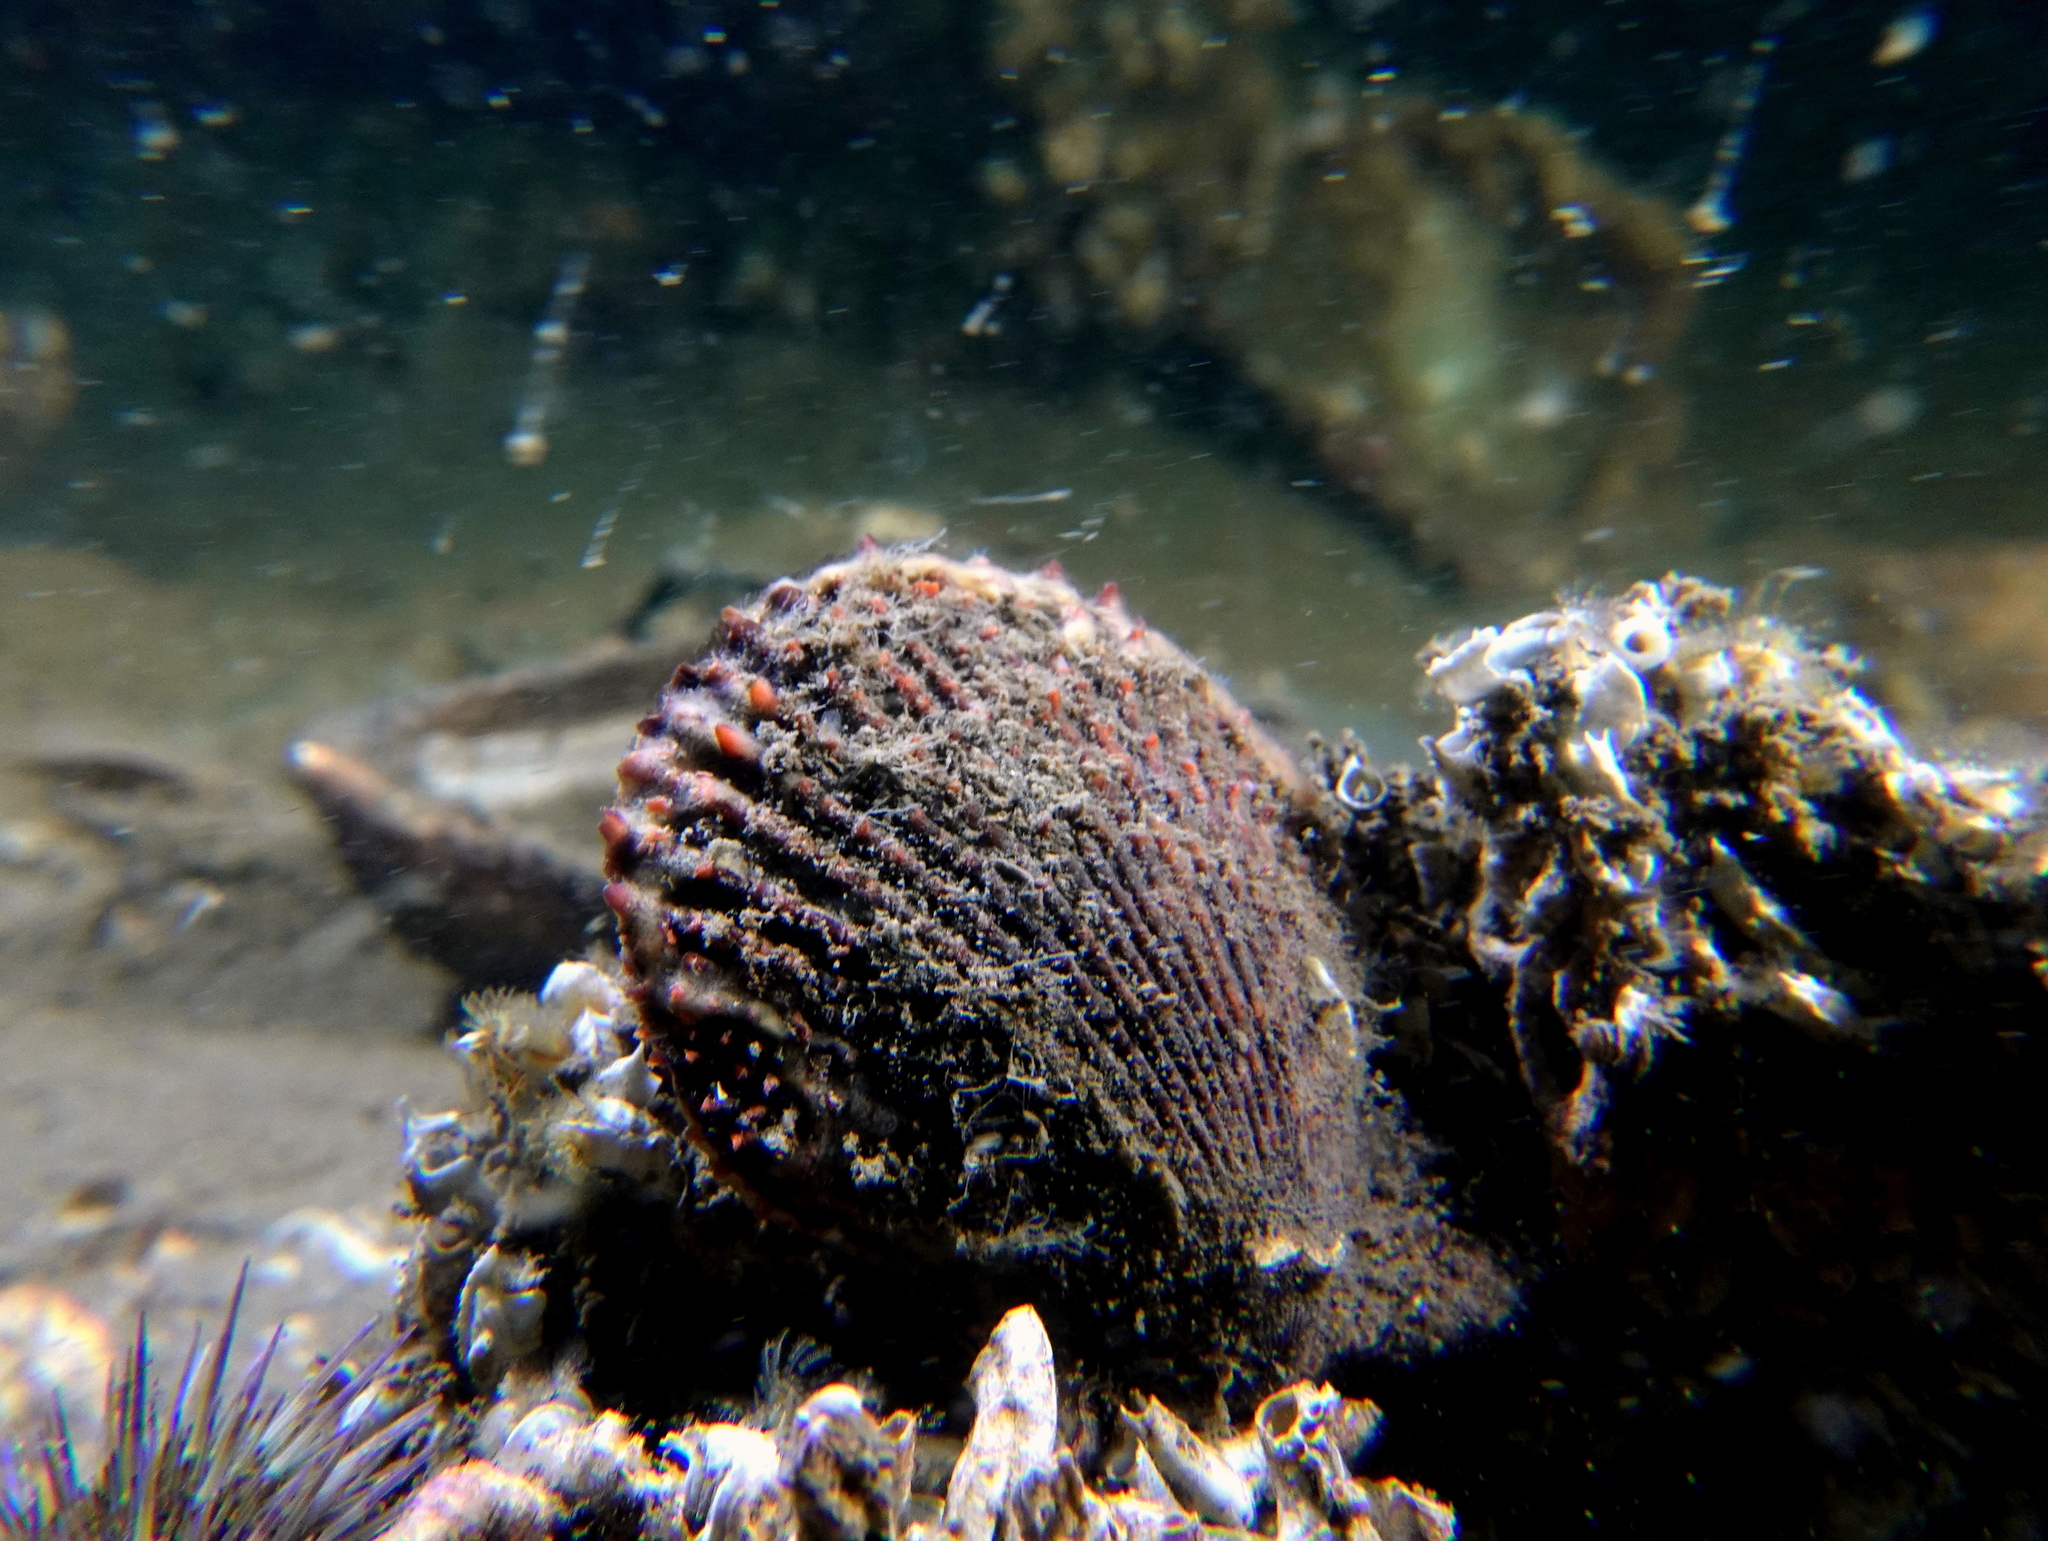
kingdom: Animalia
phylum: Mollusca
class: Bivalvia
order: Pectinida
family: Pectinidae
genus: Mimachlamys
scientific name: Mimachlamys varia
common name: Variegated scallop
